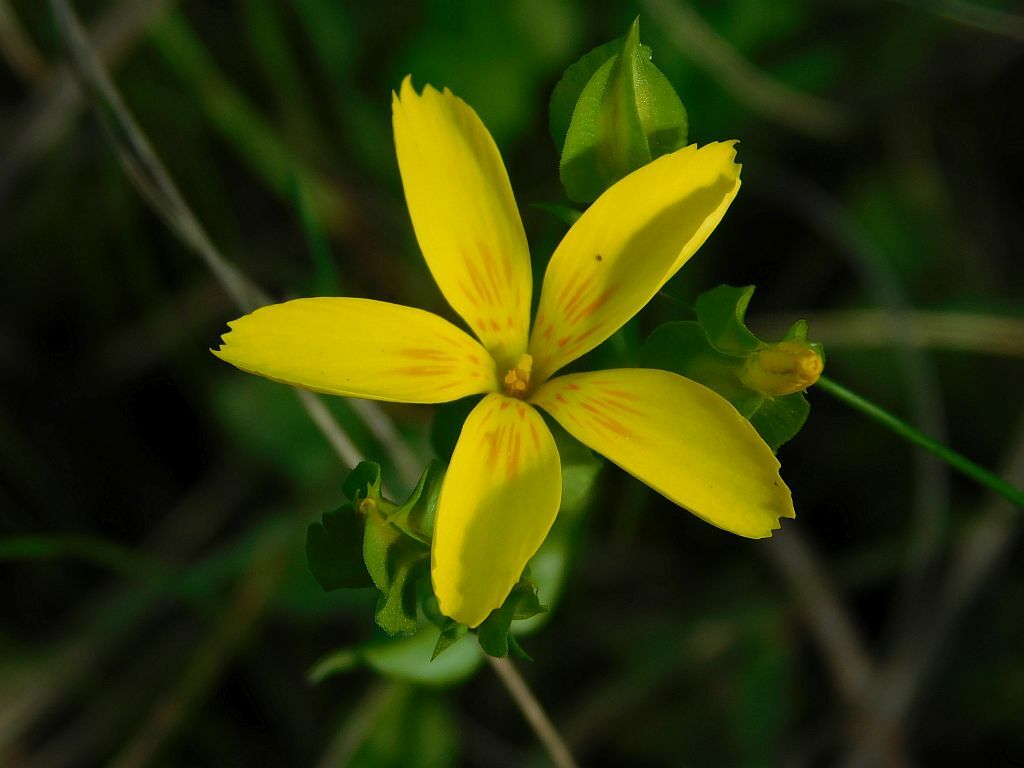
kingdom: Plantae
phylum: Tracheophyta
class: Magnoliopsida
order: Gentianales
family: Gentianaceae
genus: Sebaea
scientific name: Sebaea solaris
